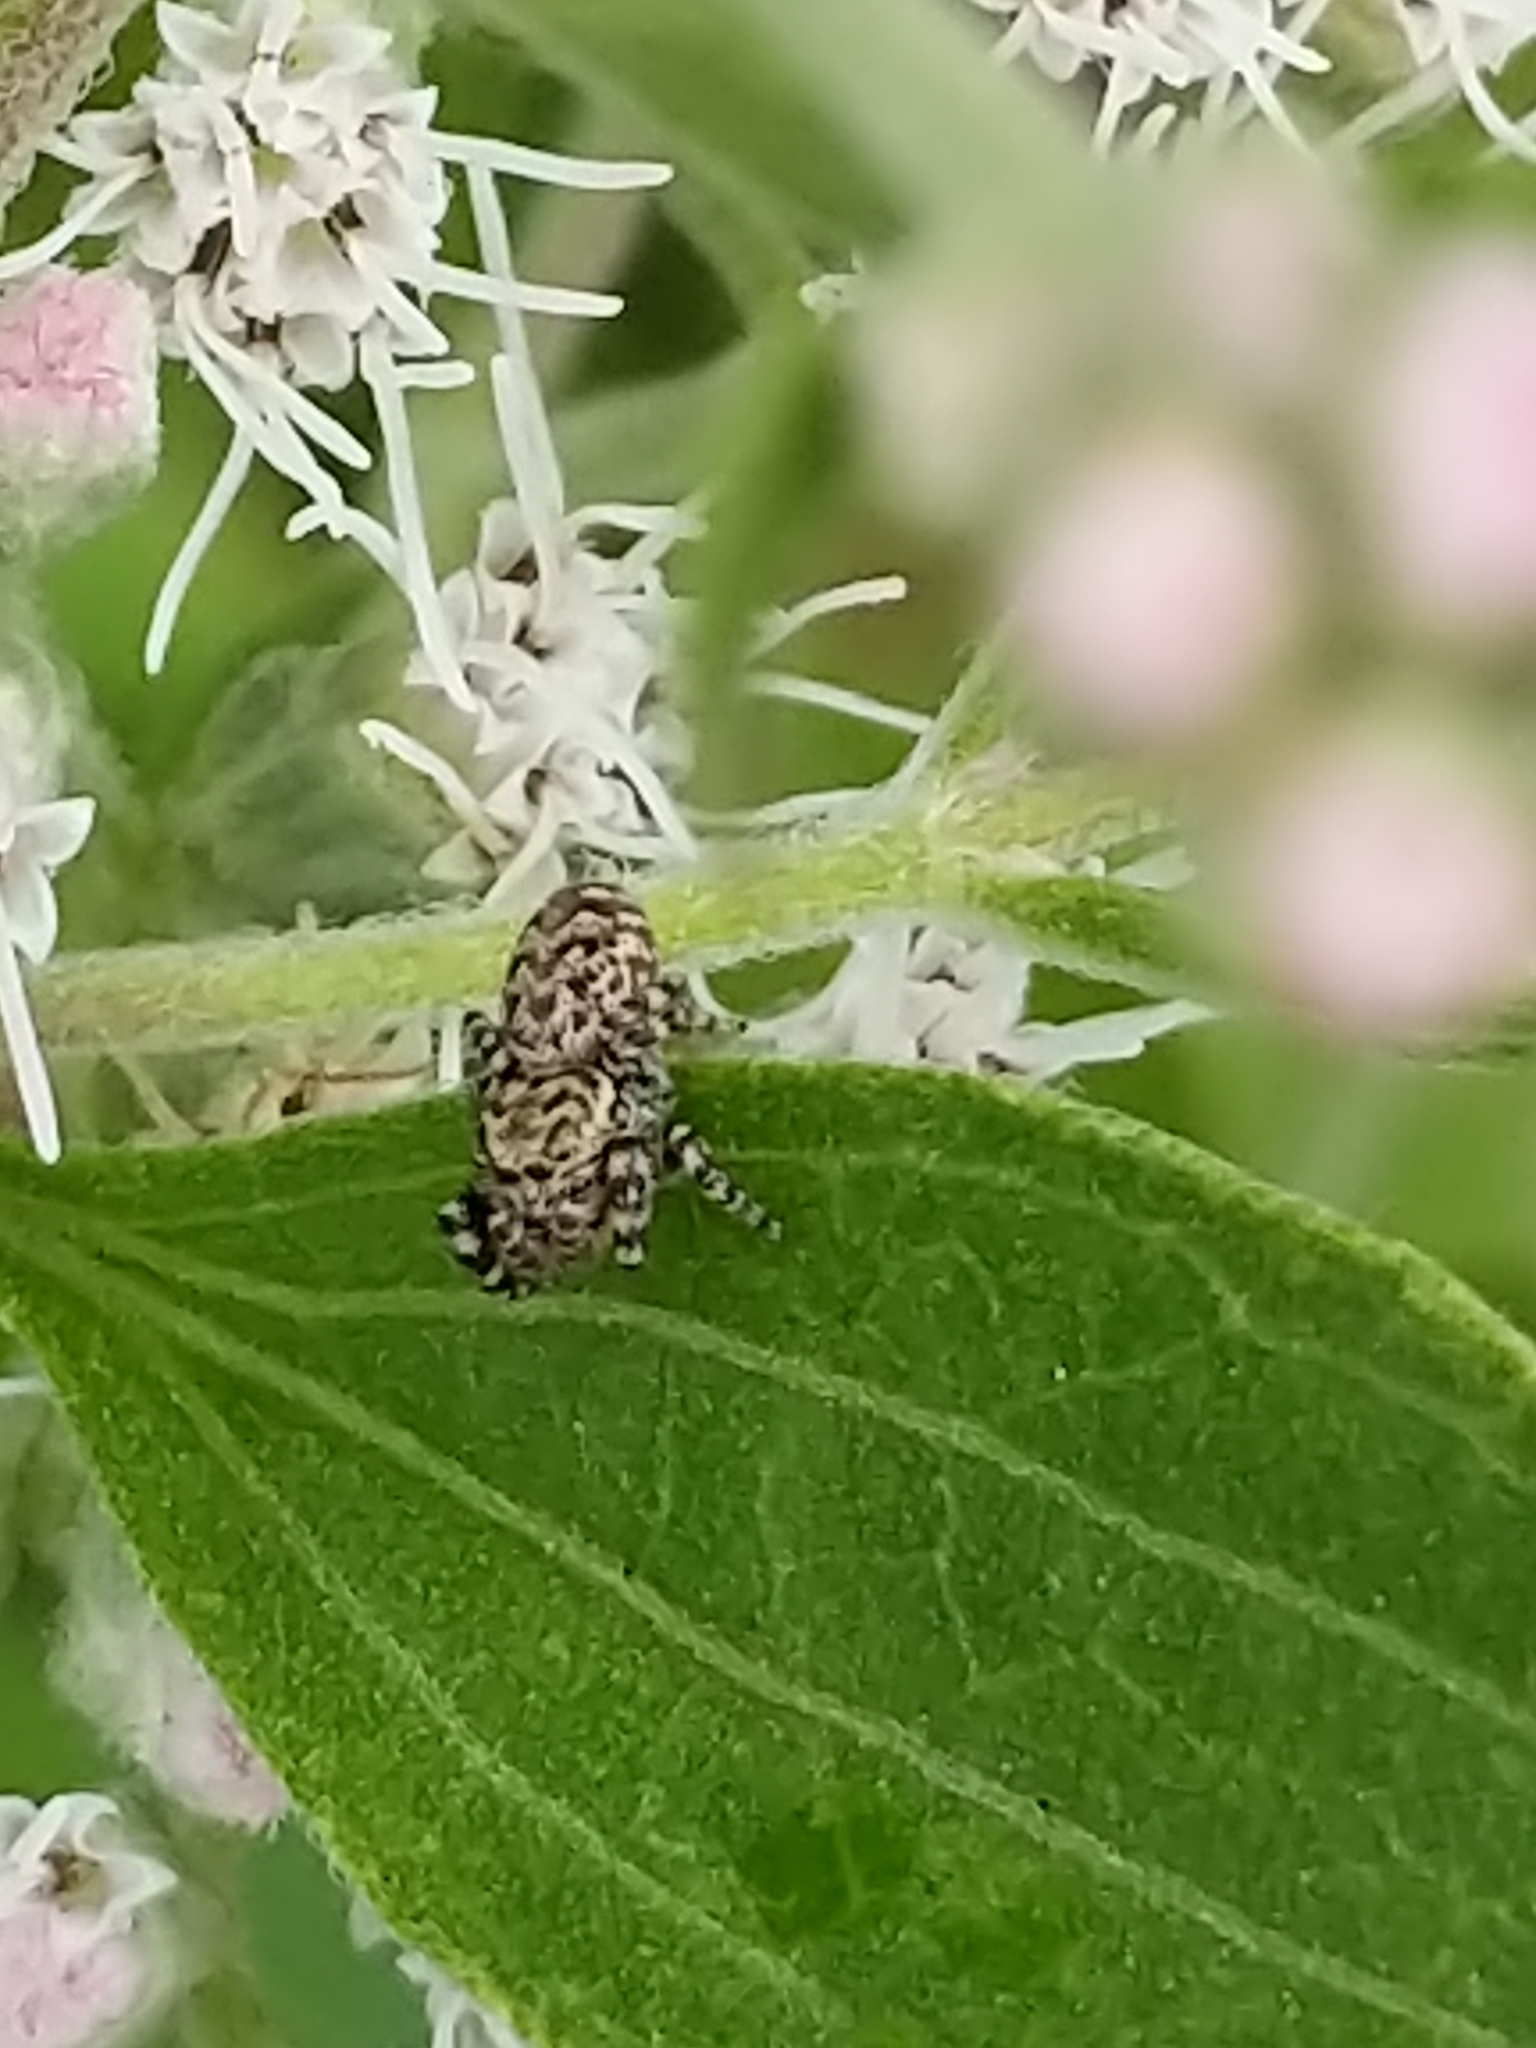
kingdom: Animalia
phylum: Arthropoda
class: Arachnida
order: Araneae
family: Salticidae
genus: Pelegrina
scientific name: Pelegrina galathea
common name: Jumping spiders
